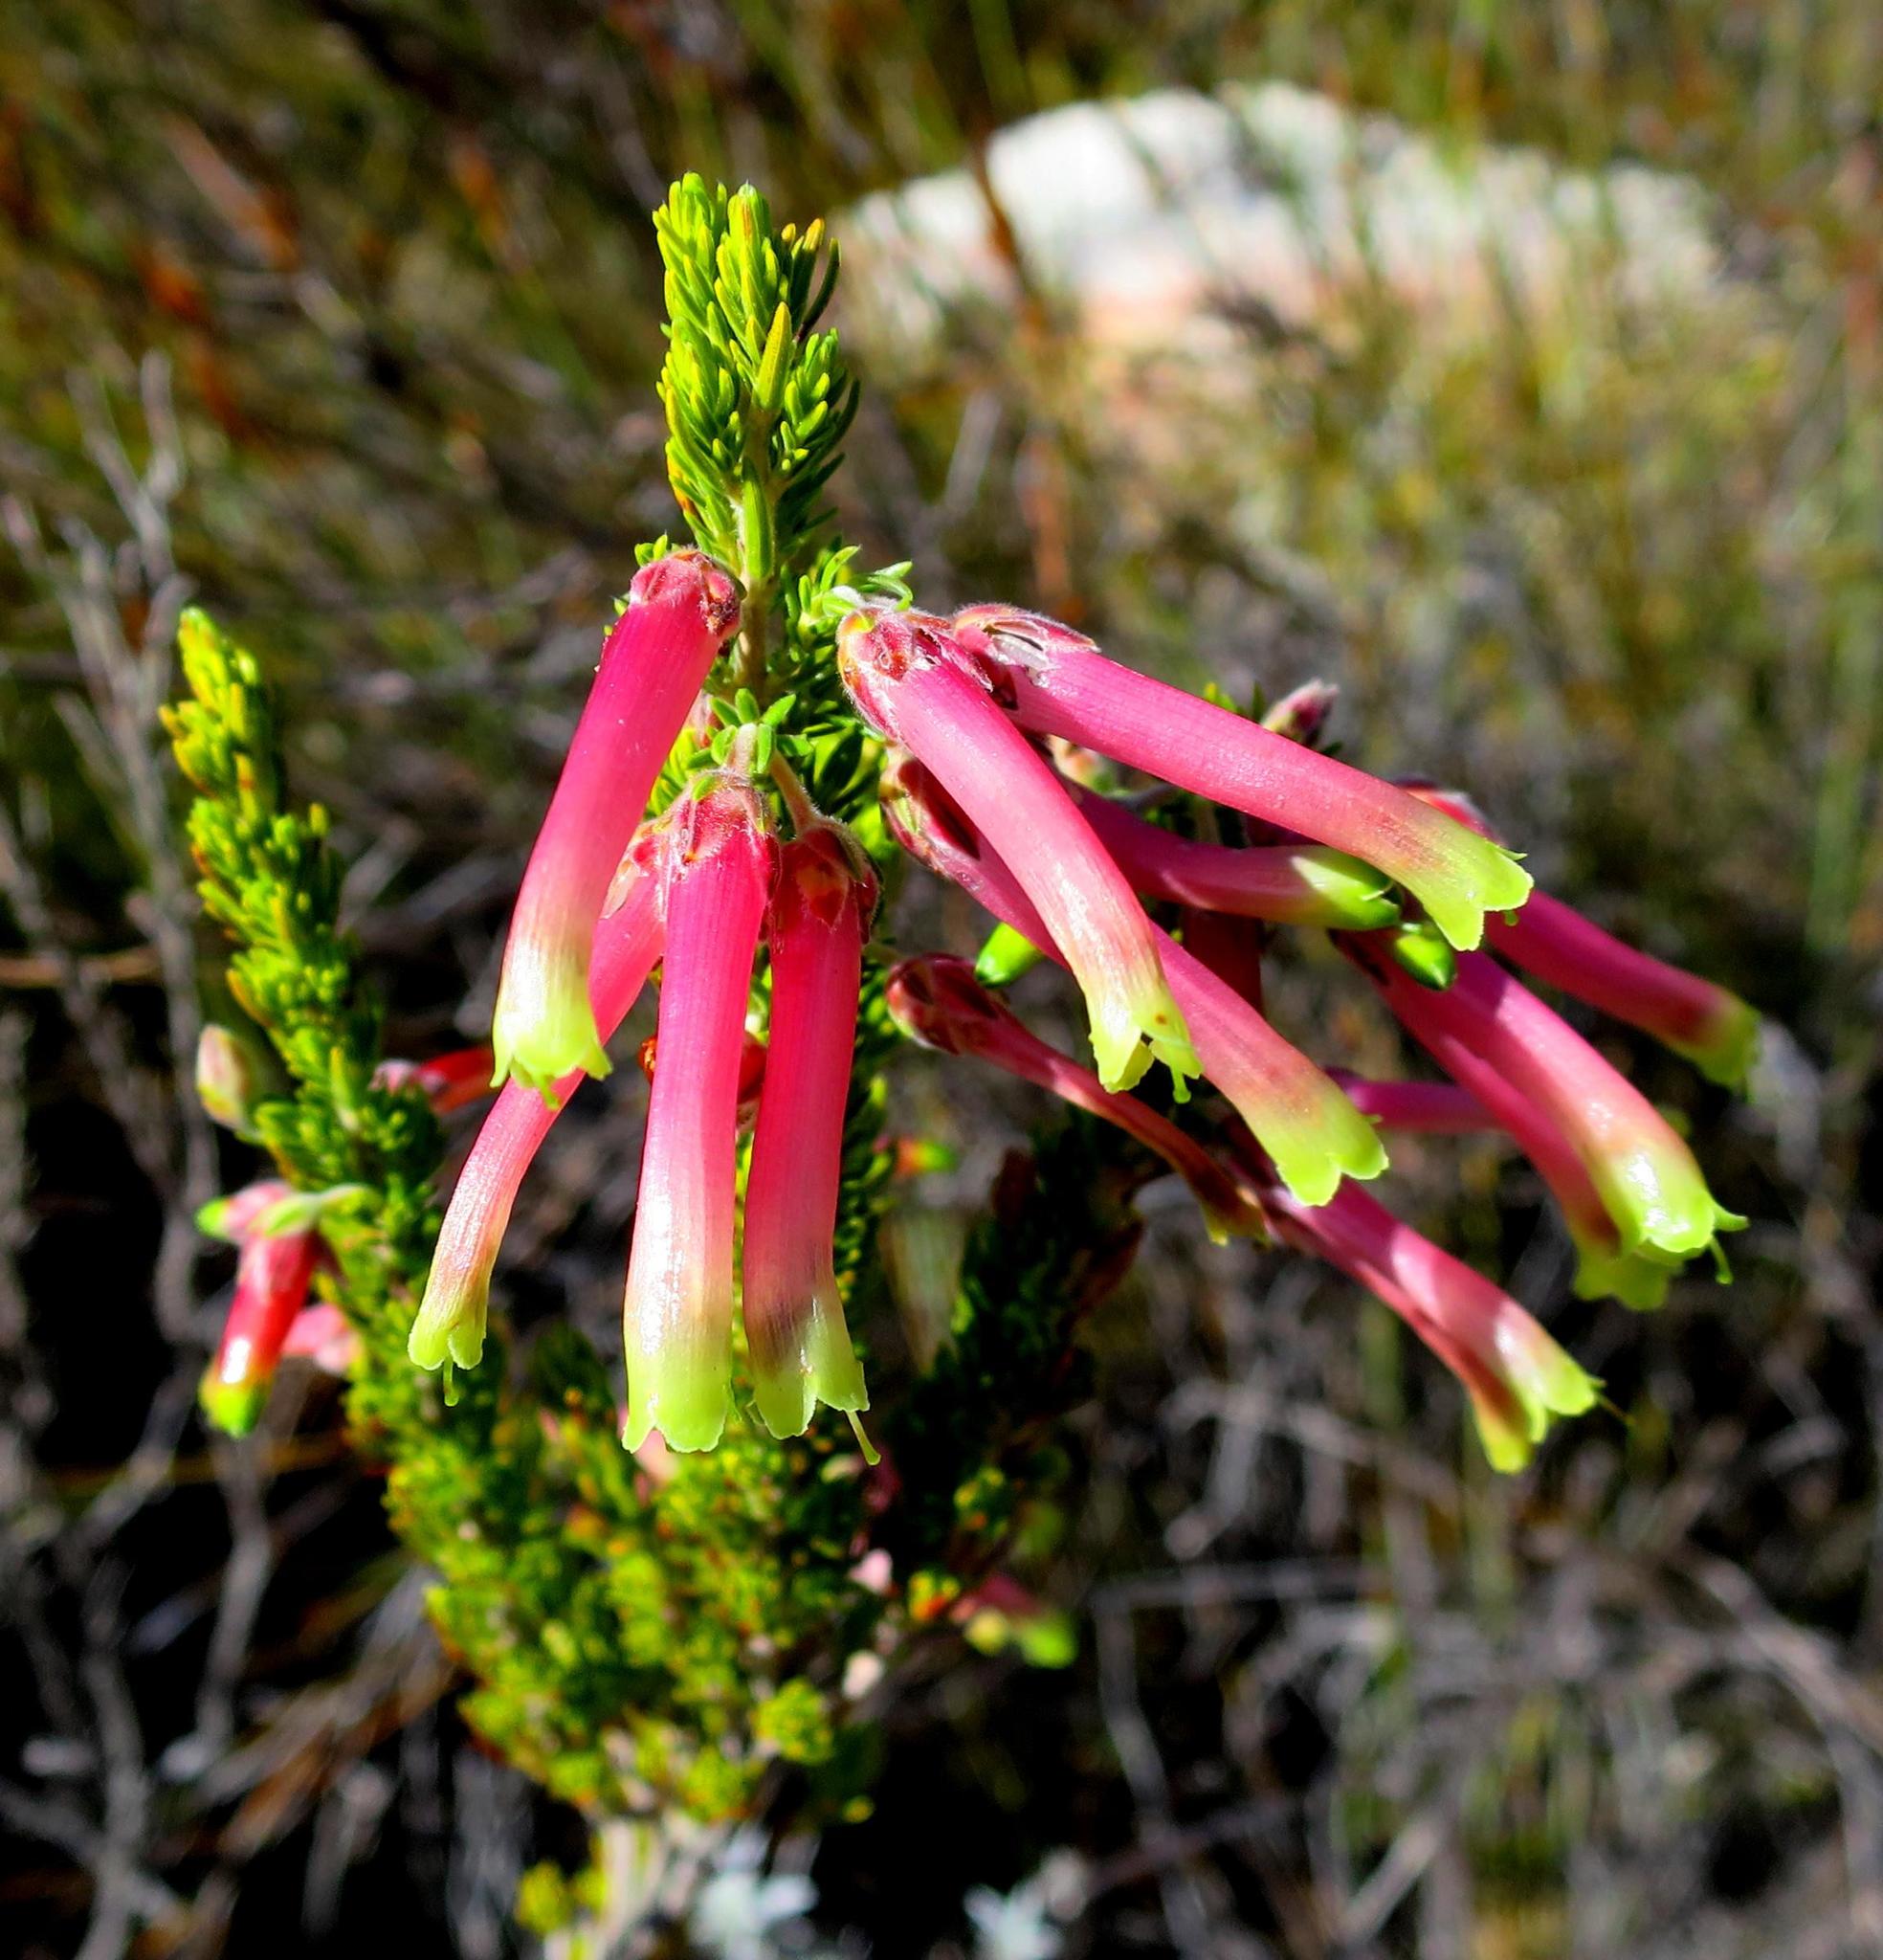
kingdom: Plantae
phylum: Tracheophyta
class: Magnoliopsida
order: Ericales
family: Ericaceae
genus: Erica
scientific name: Erica discolor
